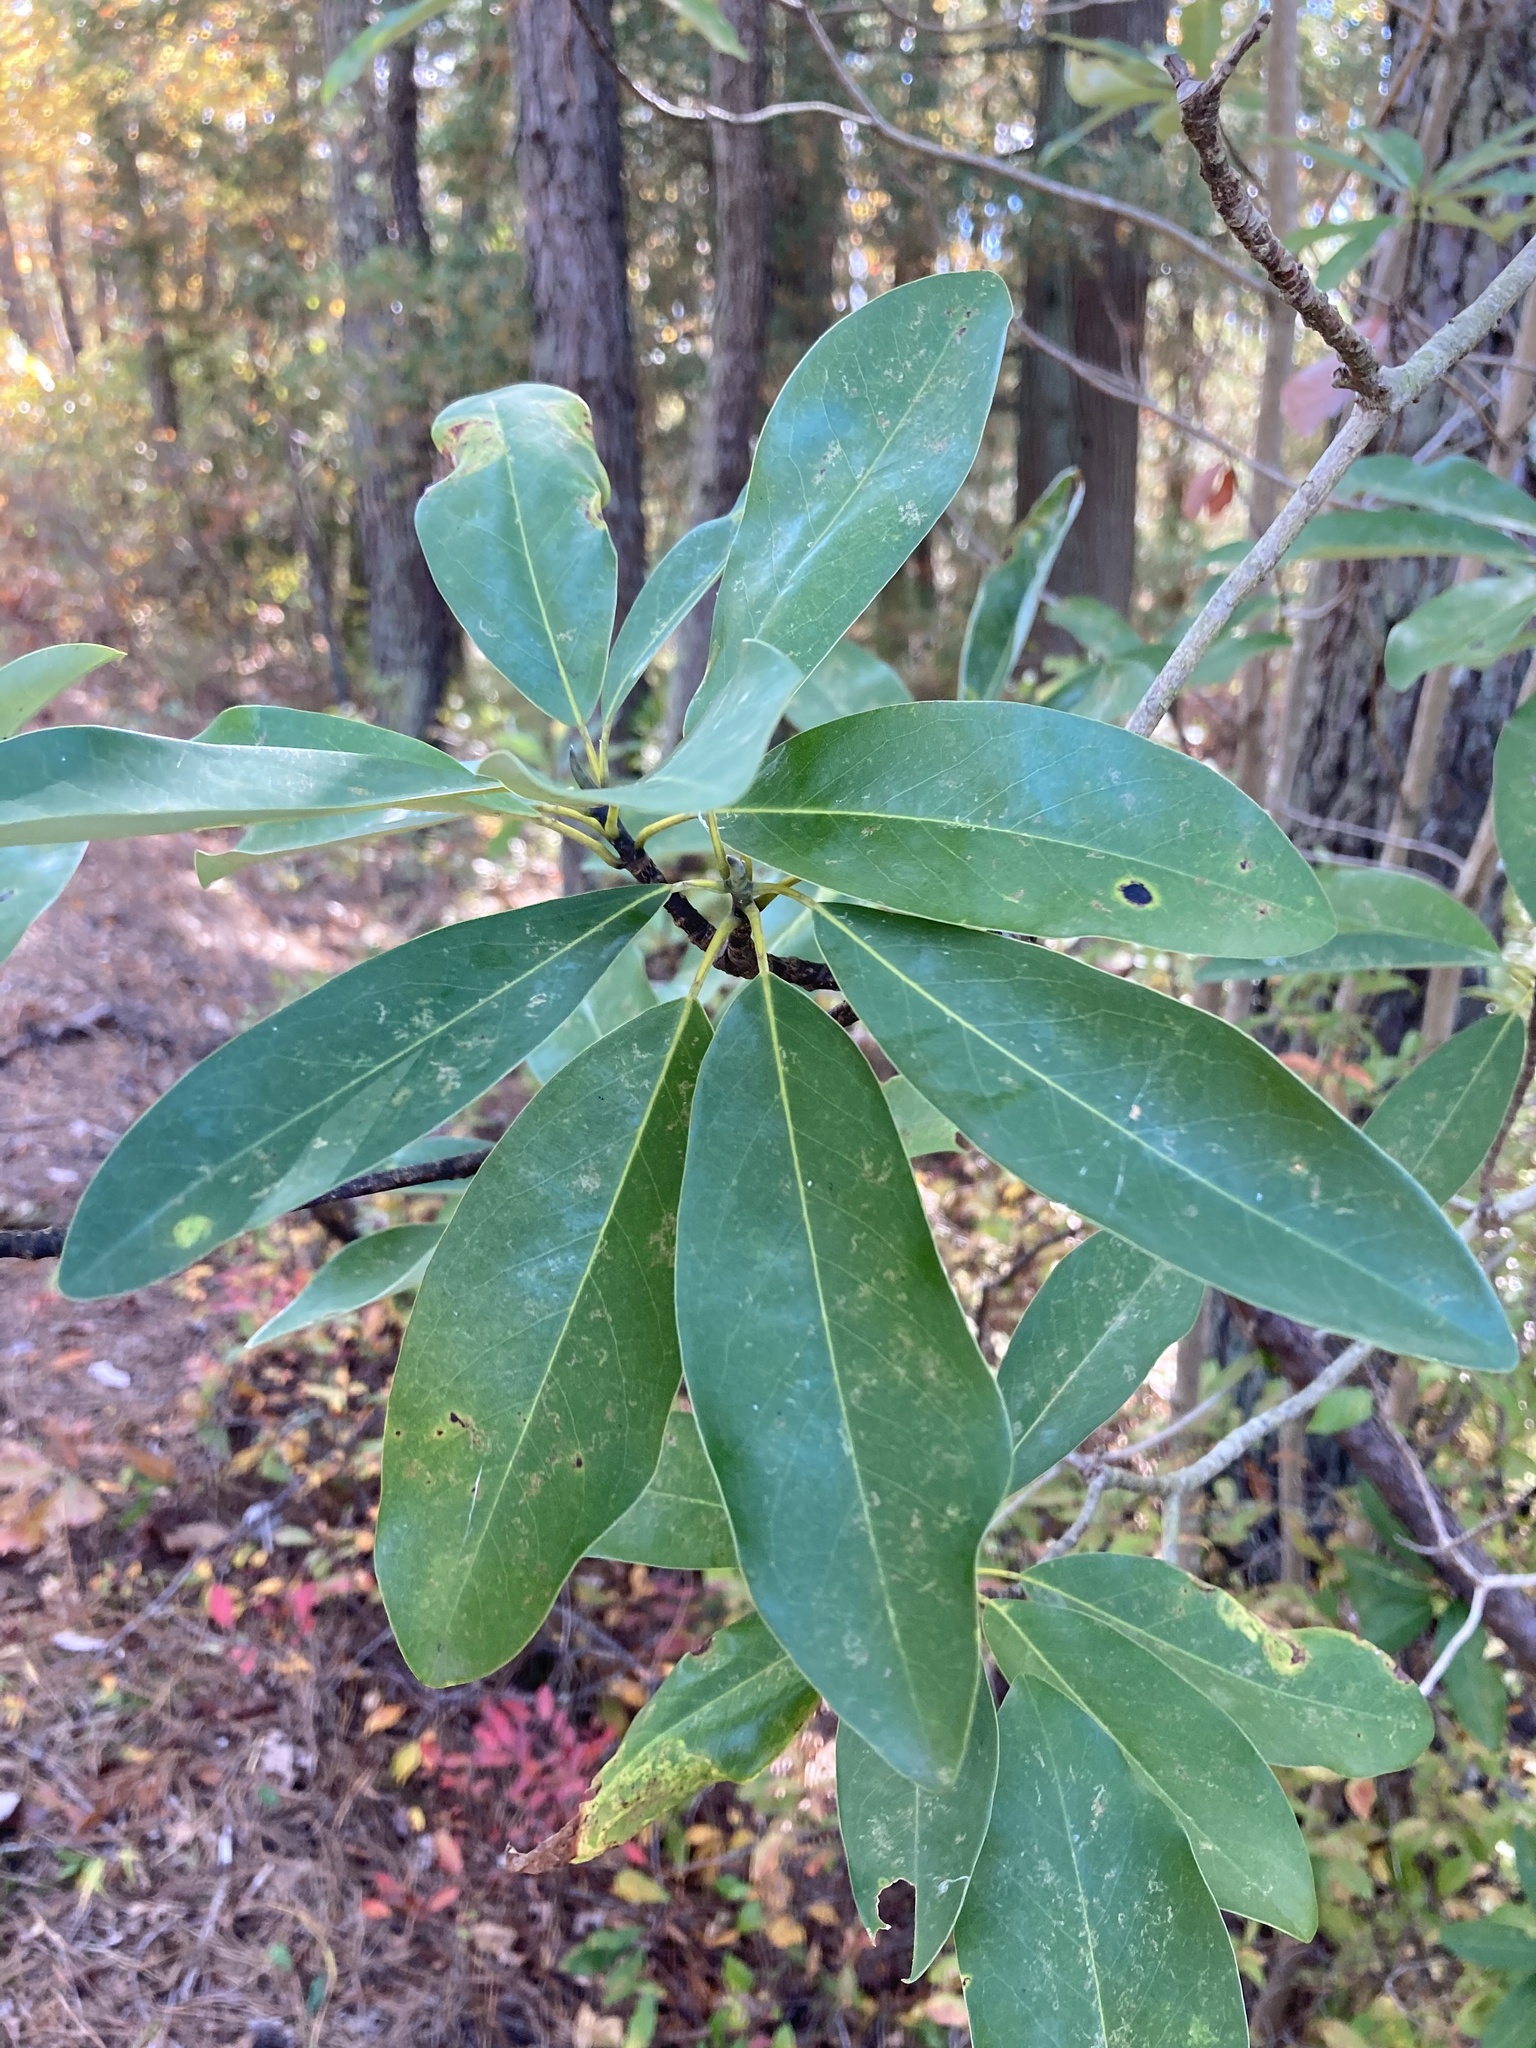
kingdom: Plantae
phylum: Tracheophyta
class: Magnoliopsida
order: Magnoliales
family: Magnoliaceae
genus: Magnolia
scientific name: Magnolia virginiana
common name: Swamp bay
